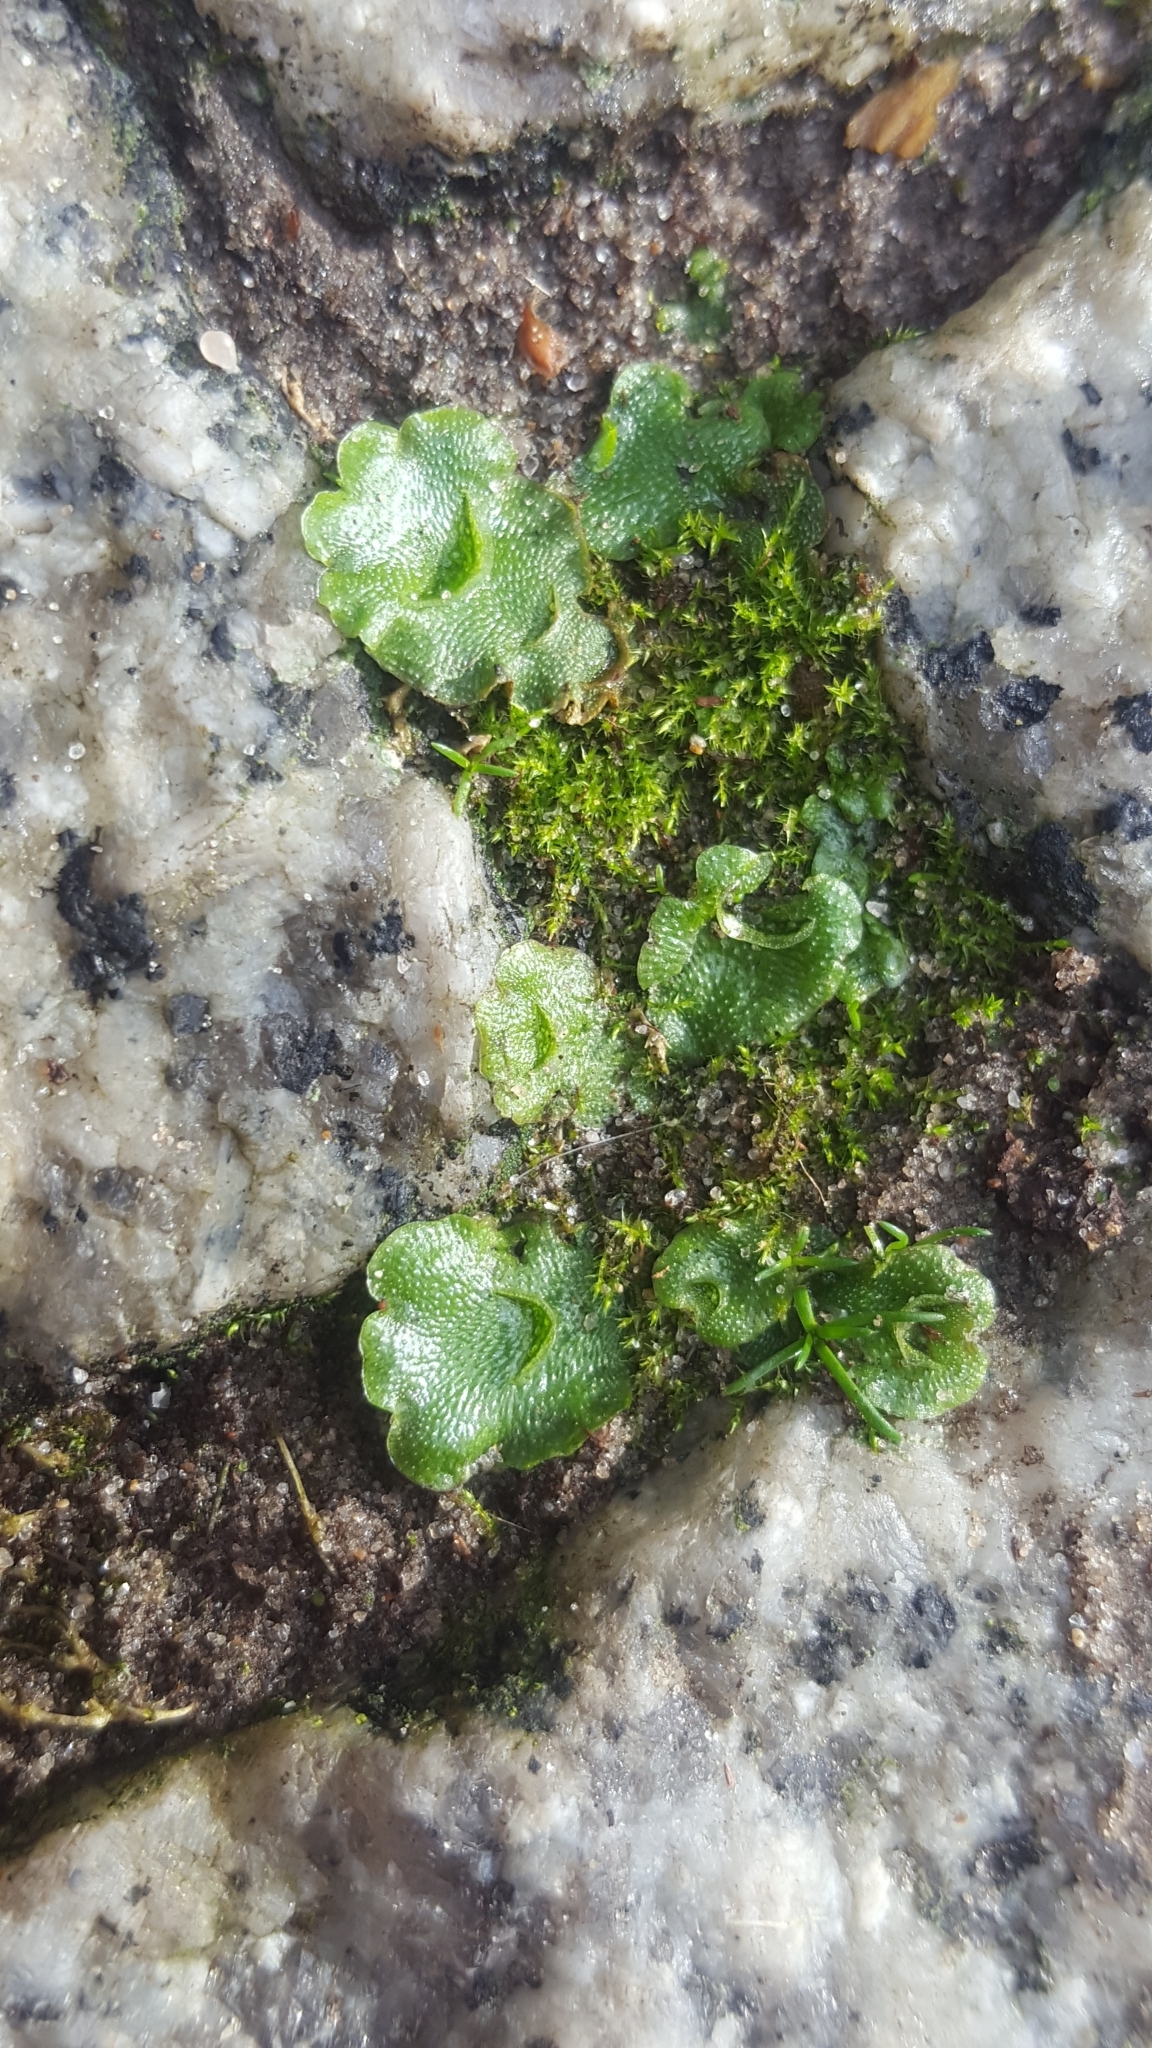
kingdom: Plantae
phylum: Marchantiophyta
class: Marchantiopsida
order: Lunulariales
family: Lunulariaceae
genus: Lunularia
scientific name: Lunularia cruciata
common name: Crescent-cup liverwort
